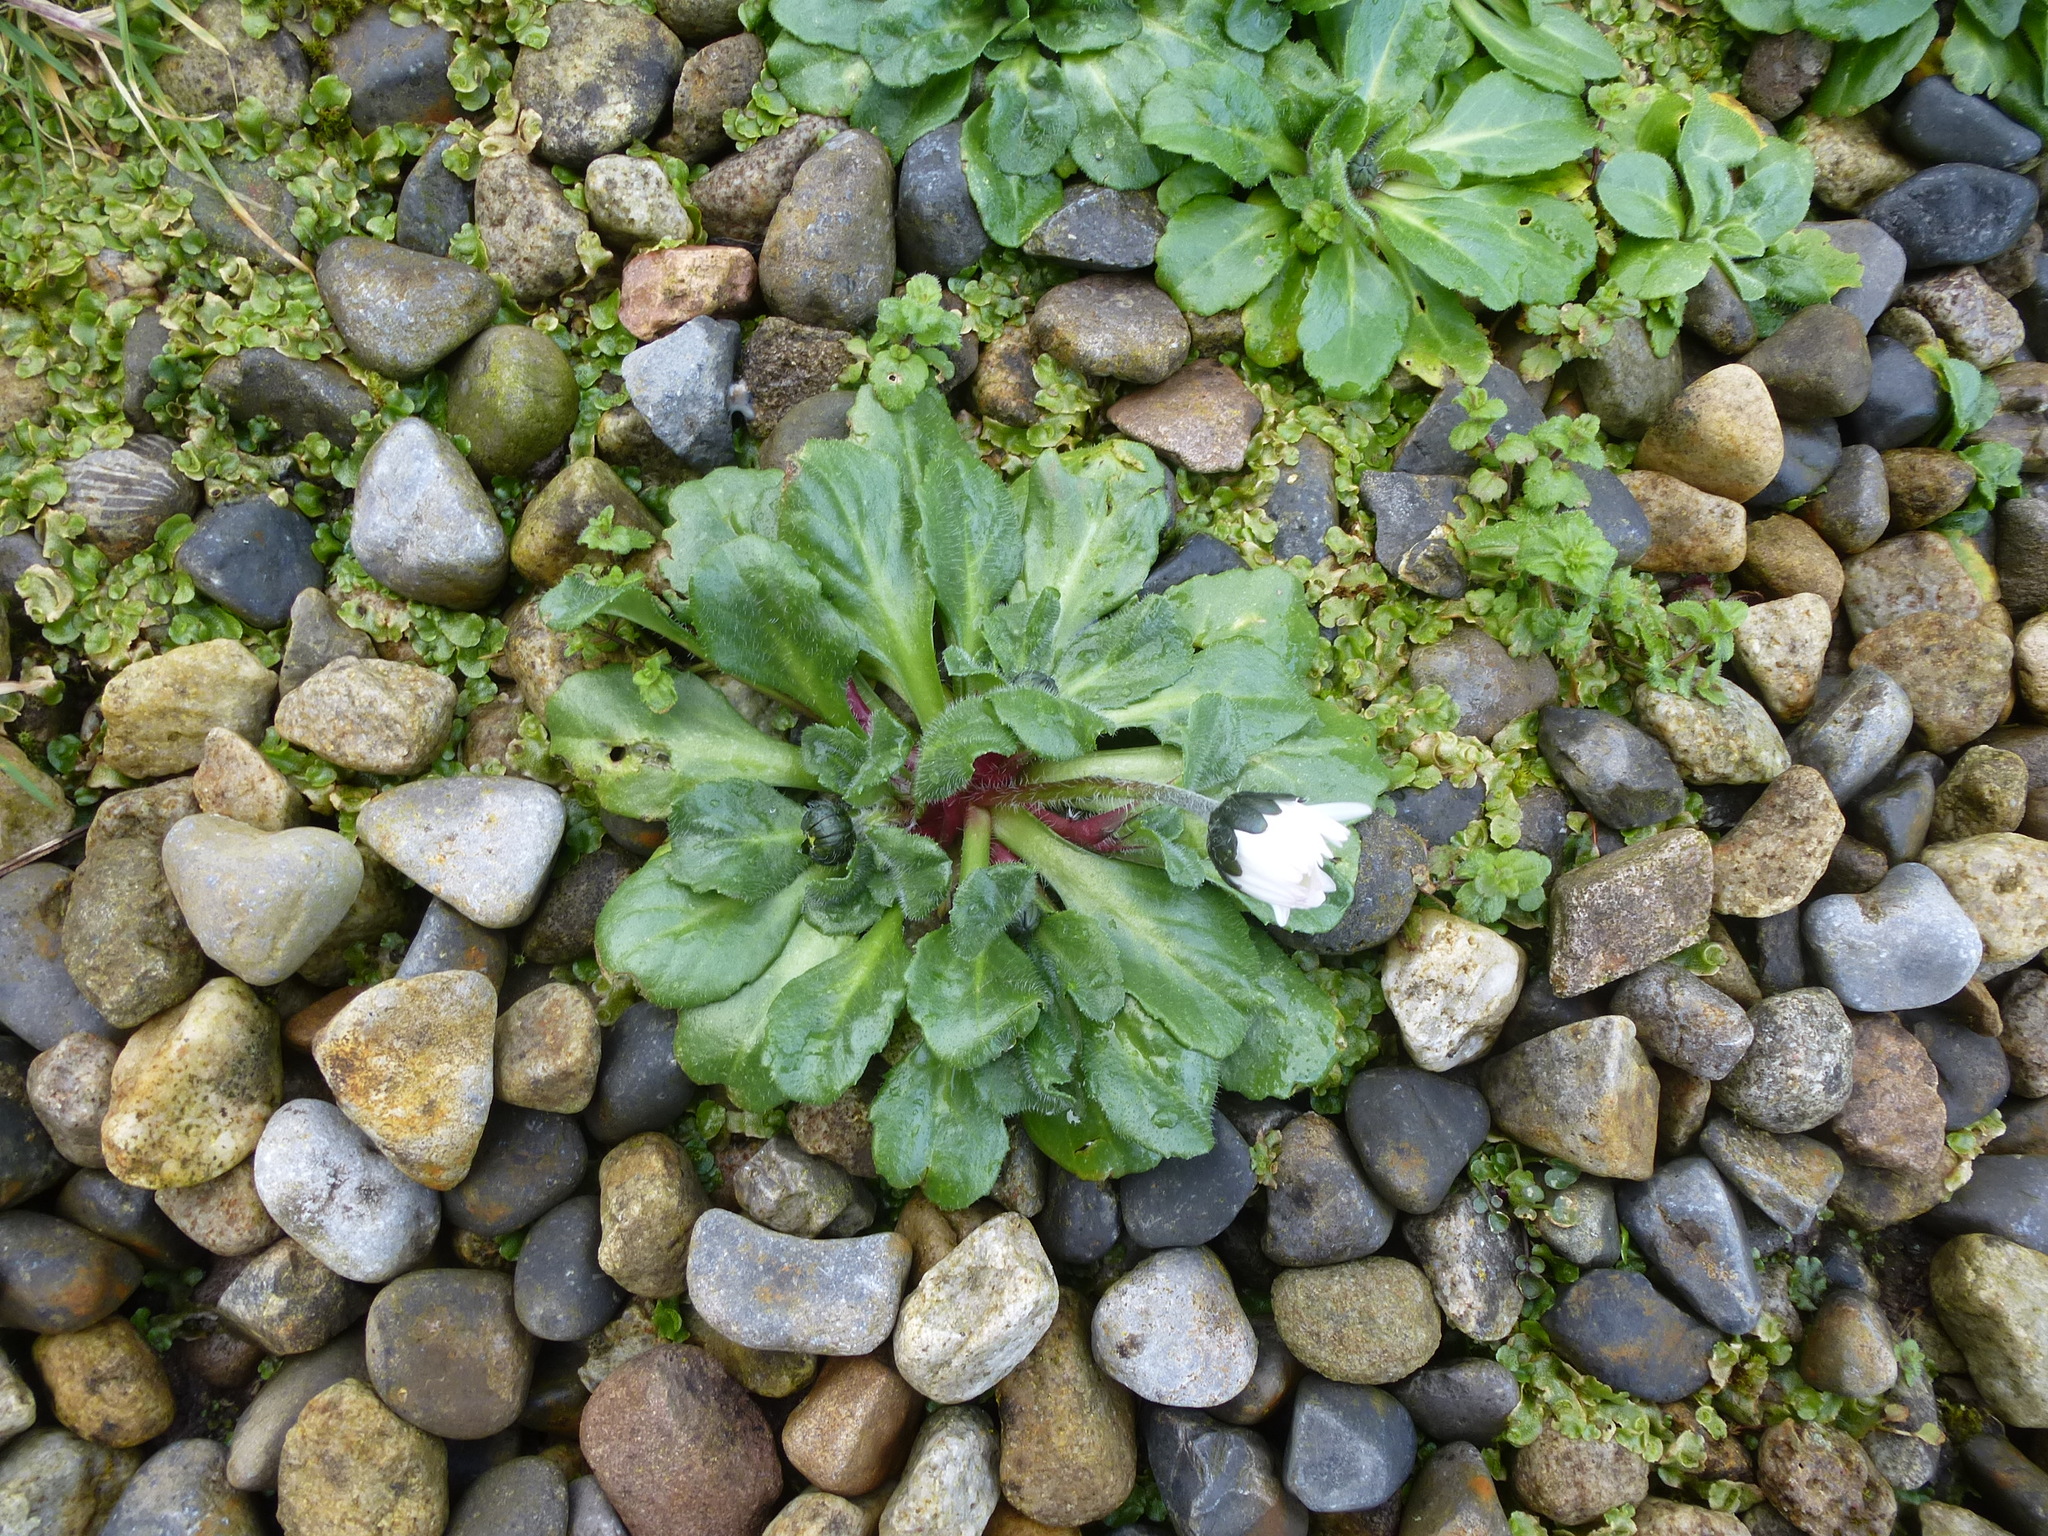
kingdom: Plantae
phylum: Tracheophyta
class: Magnoliopsida
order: Asterales
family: Asteraceae
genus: Bellis
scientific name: Bellis perennis
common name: Lawndaisy
